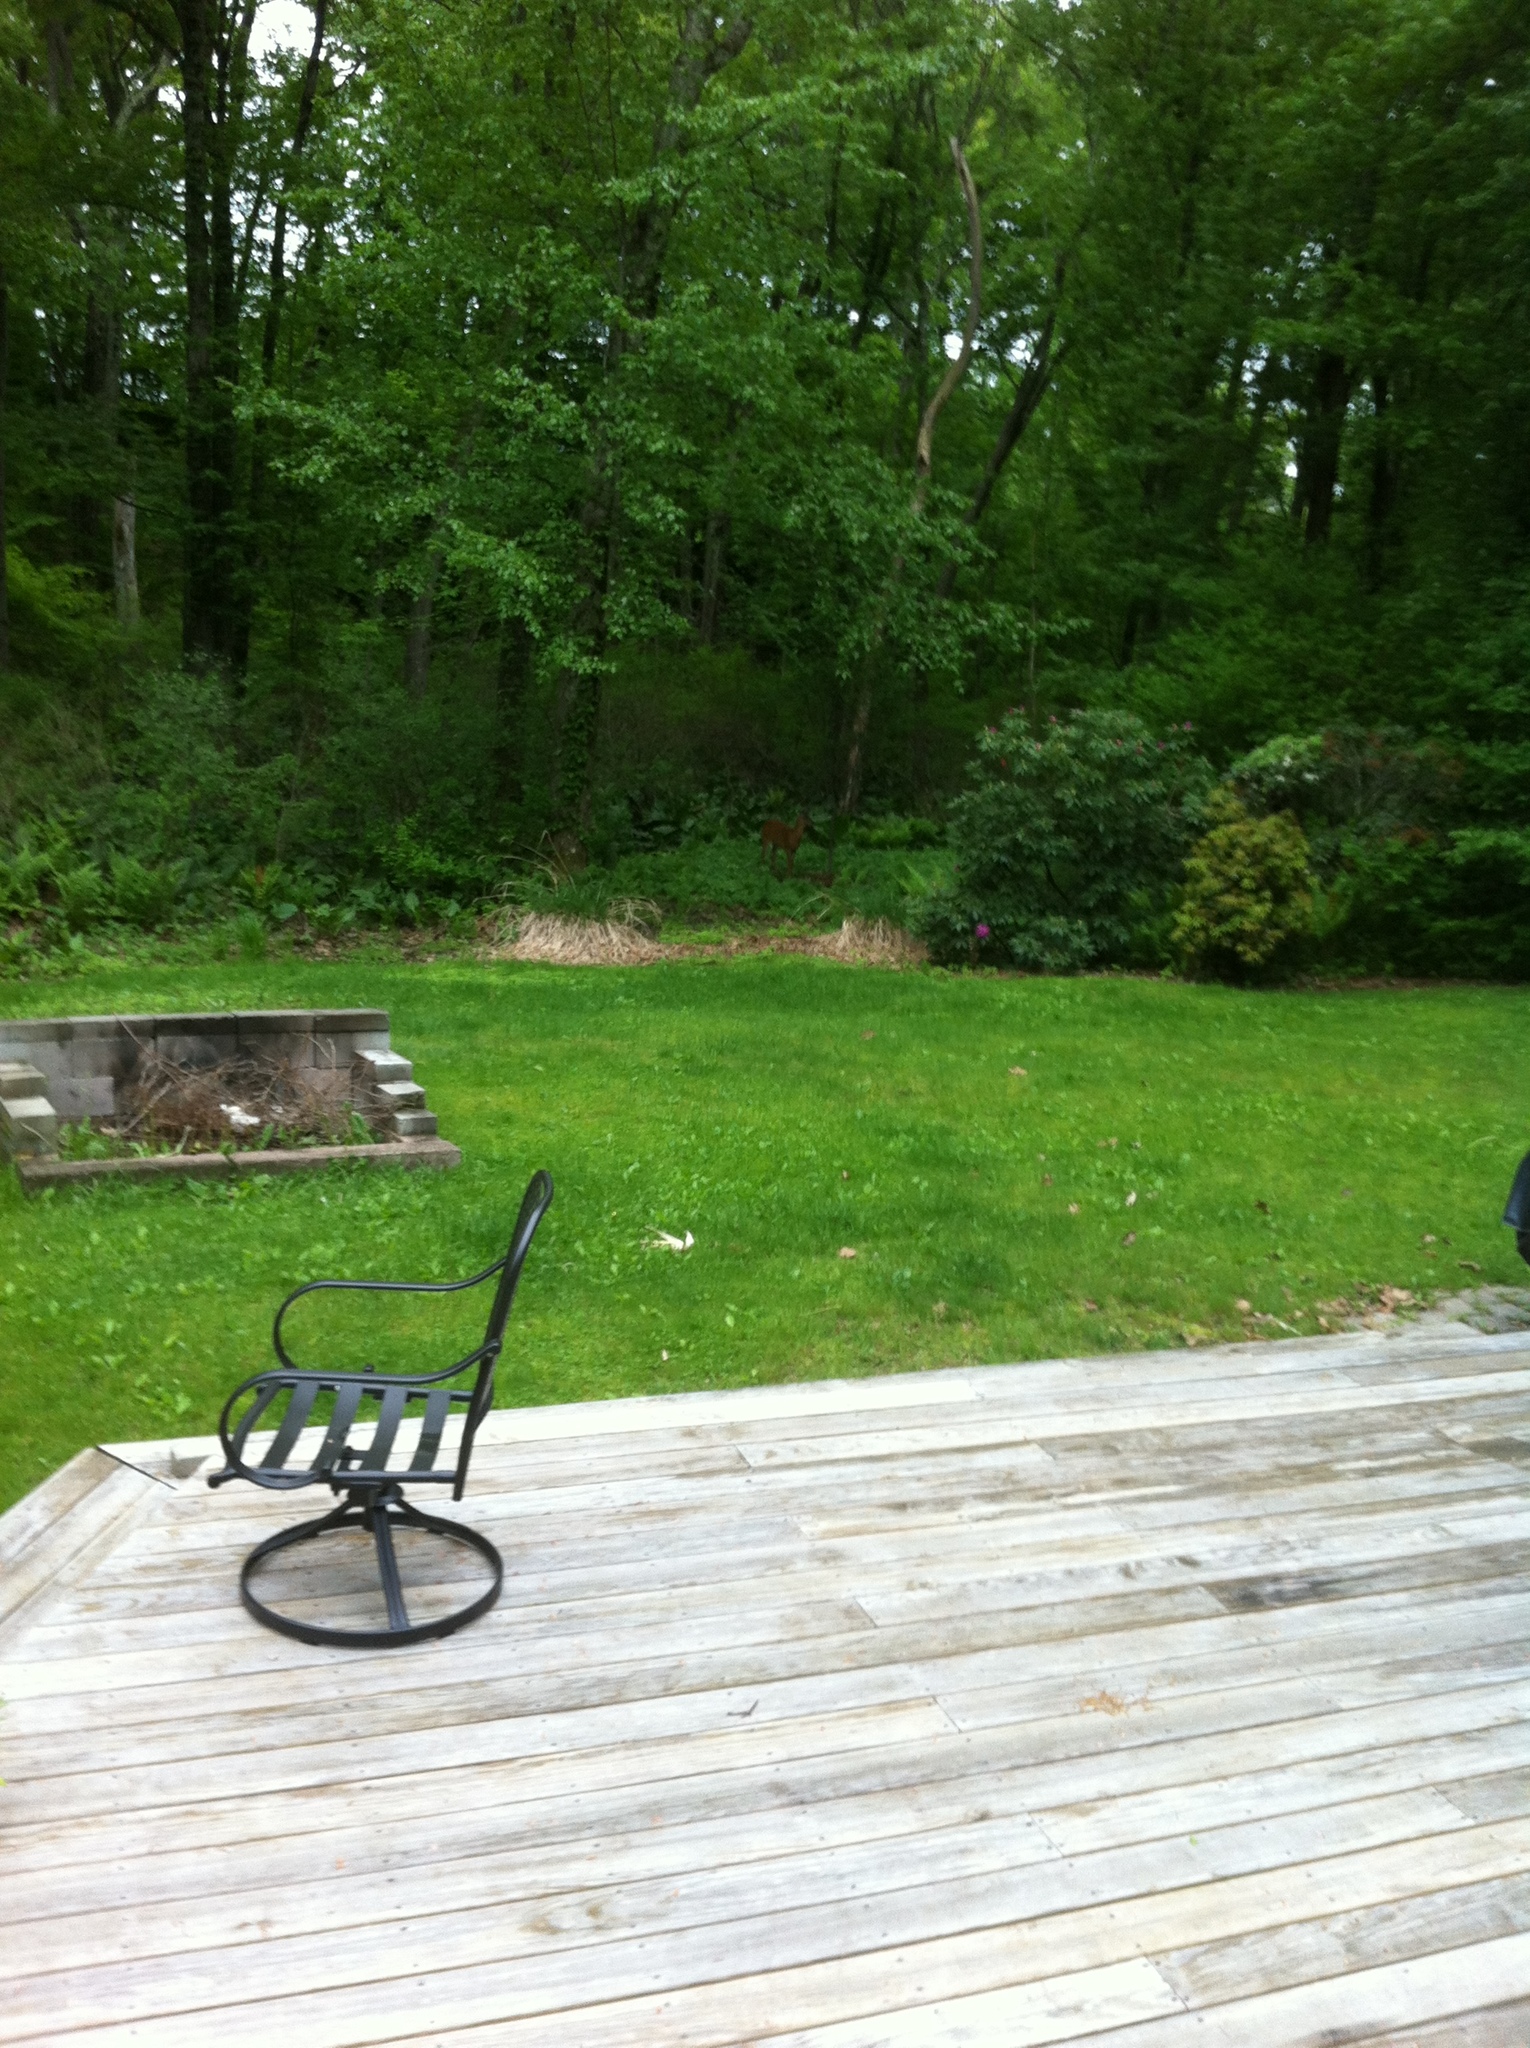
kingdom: Animalia
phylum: Chordata
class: Mammalia
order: Artiodactyla
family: Cervidae
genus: Odocoileus
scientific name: Odocoileus virginianus
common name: White-tailed deer
